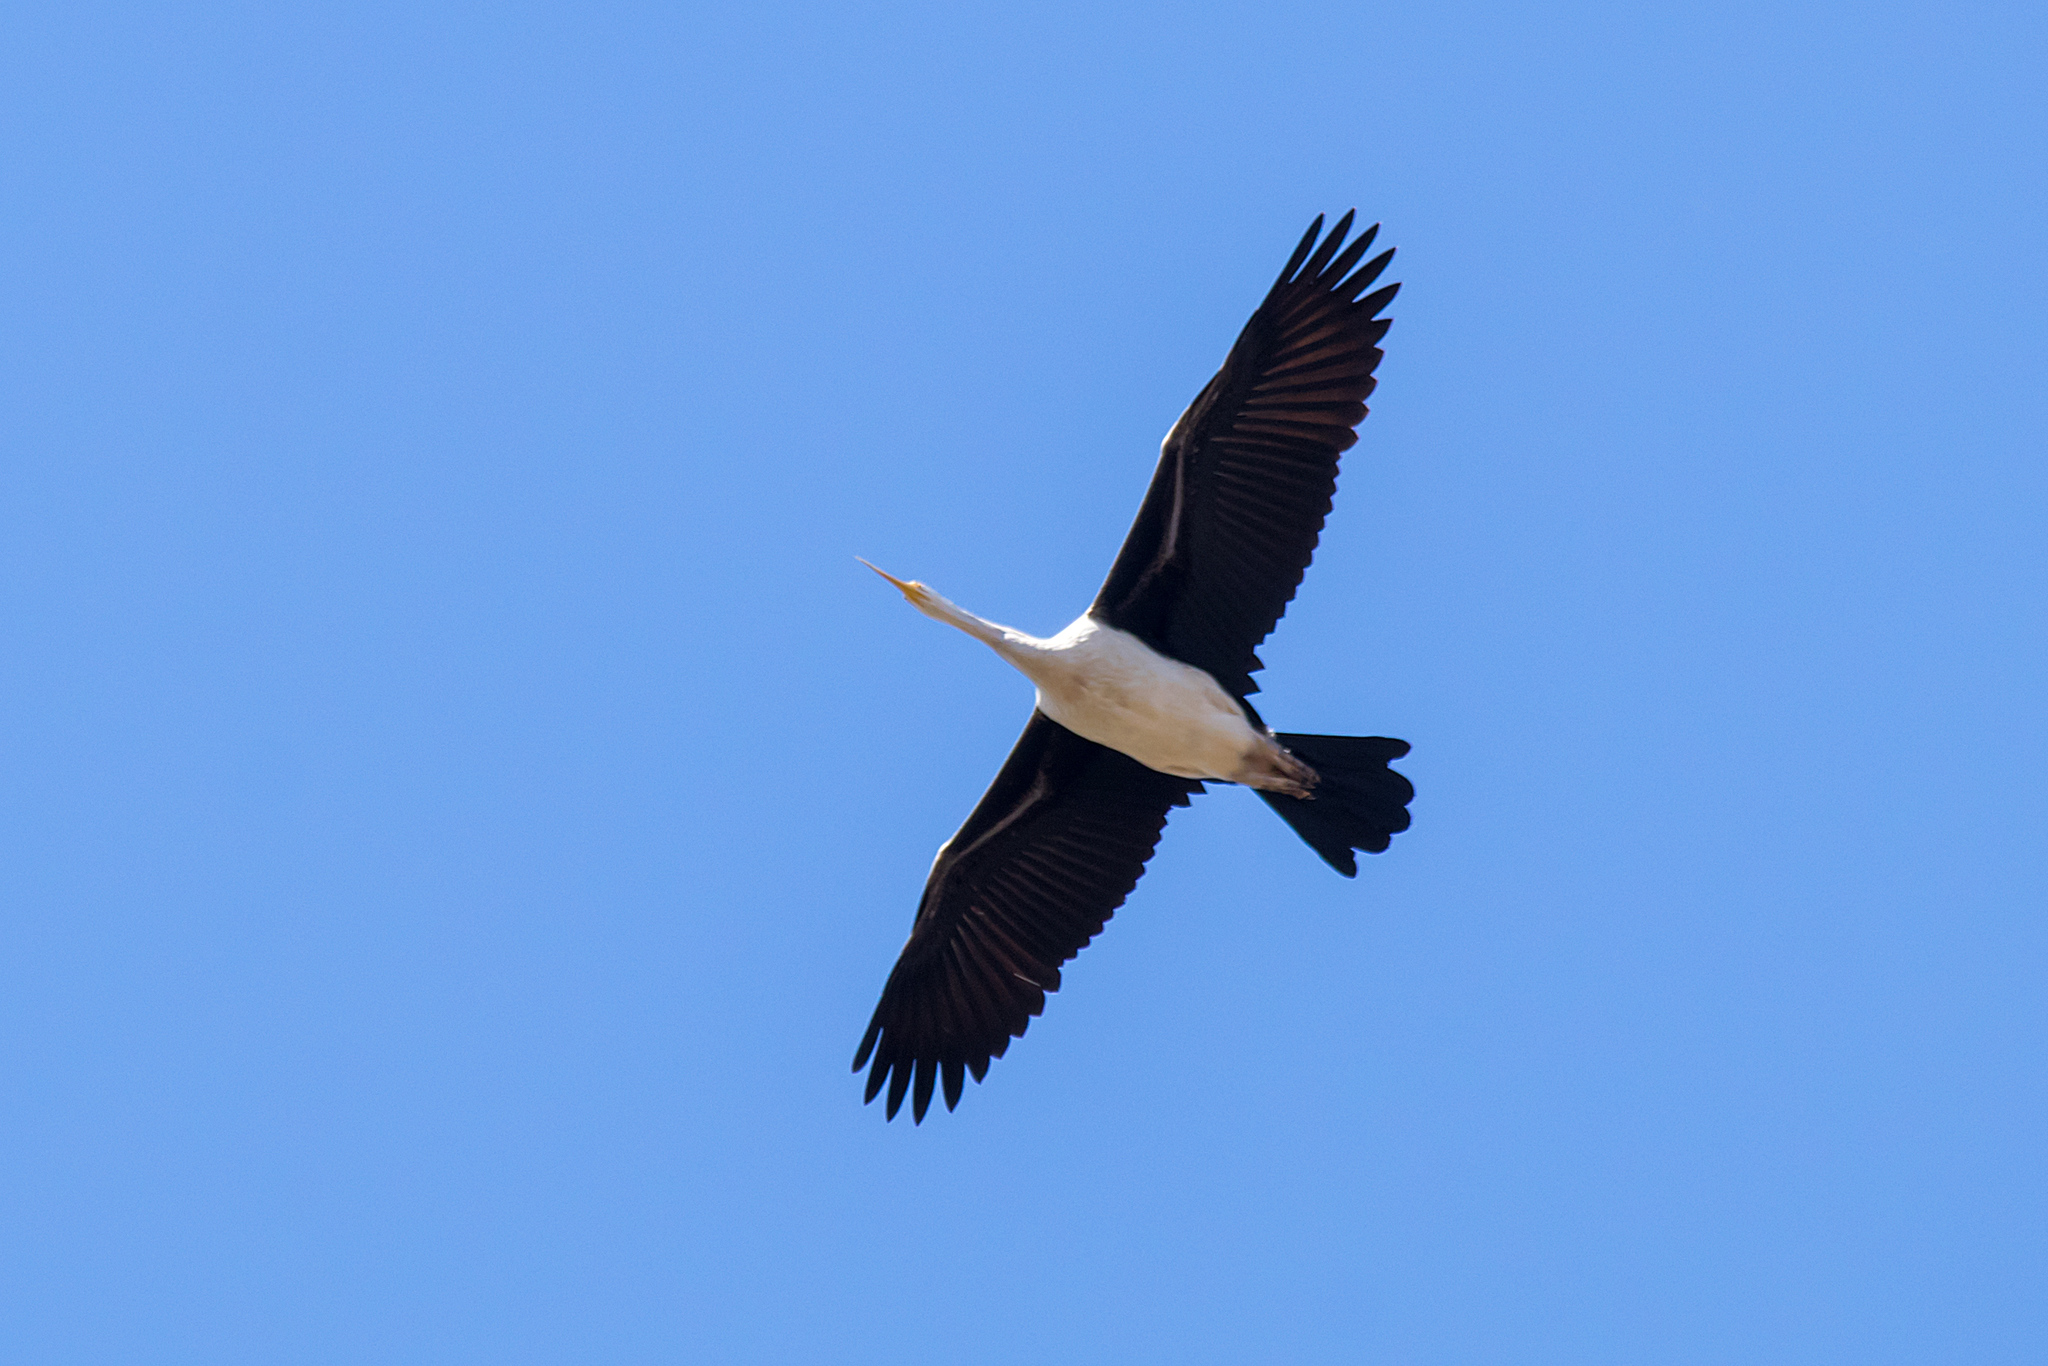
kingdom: Animalia
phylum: Chordata
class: Aves
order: Suliformes
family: Anhingidae
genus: Anhinga
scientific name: Anhinga novaehollandiae
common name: Australasian darter
